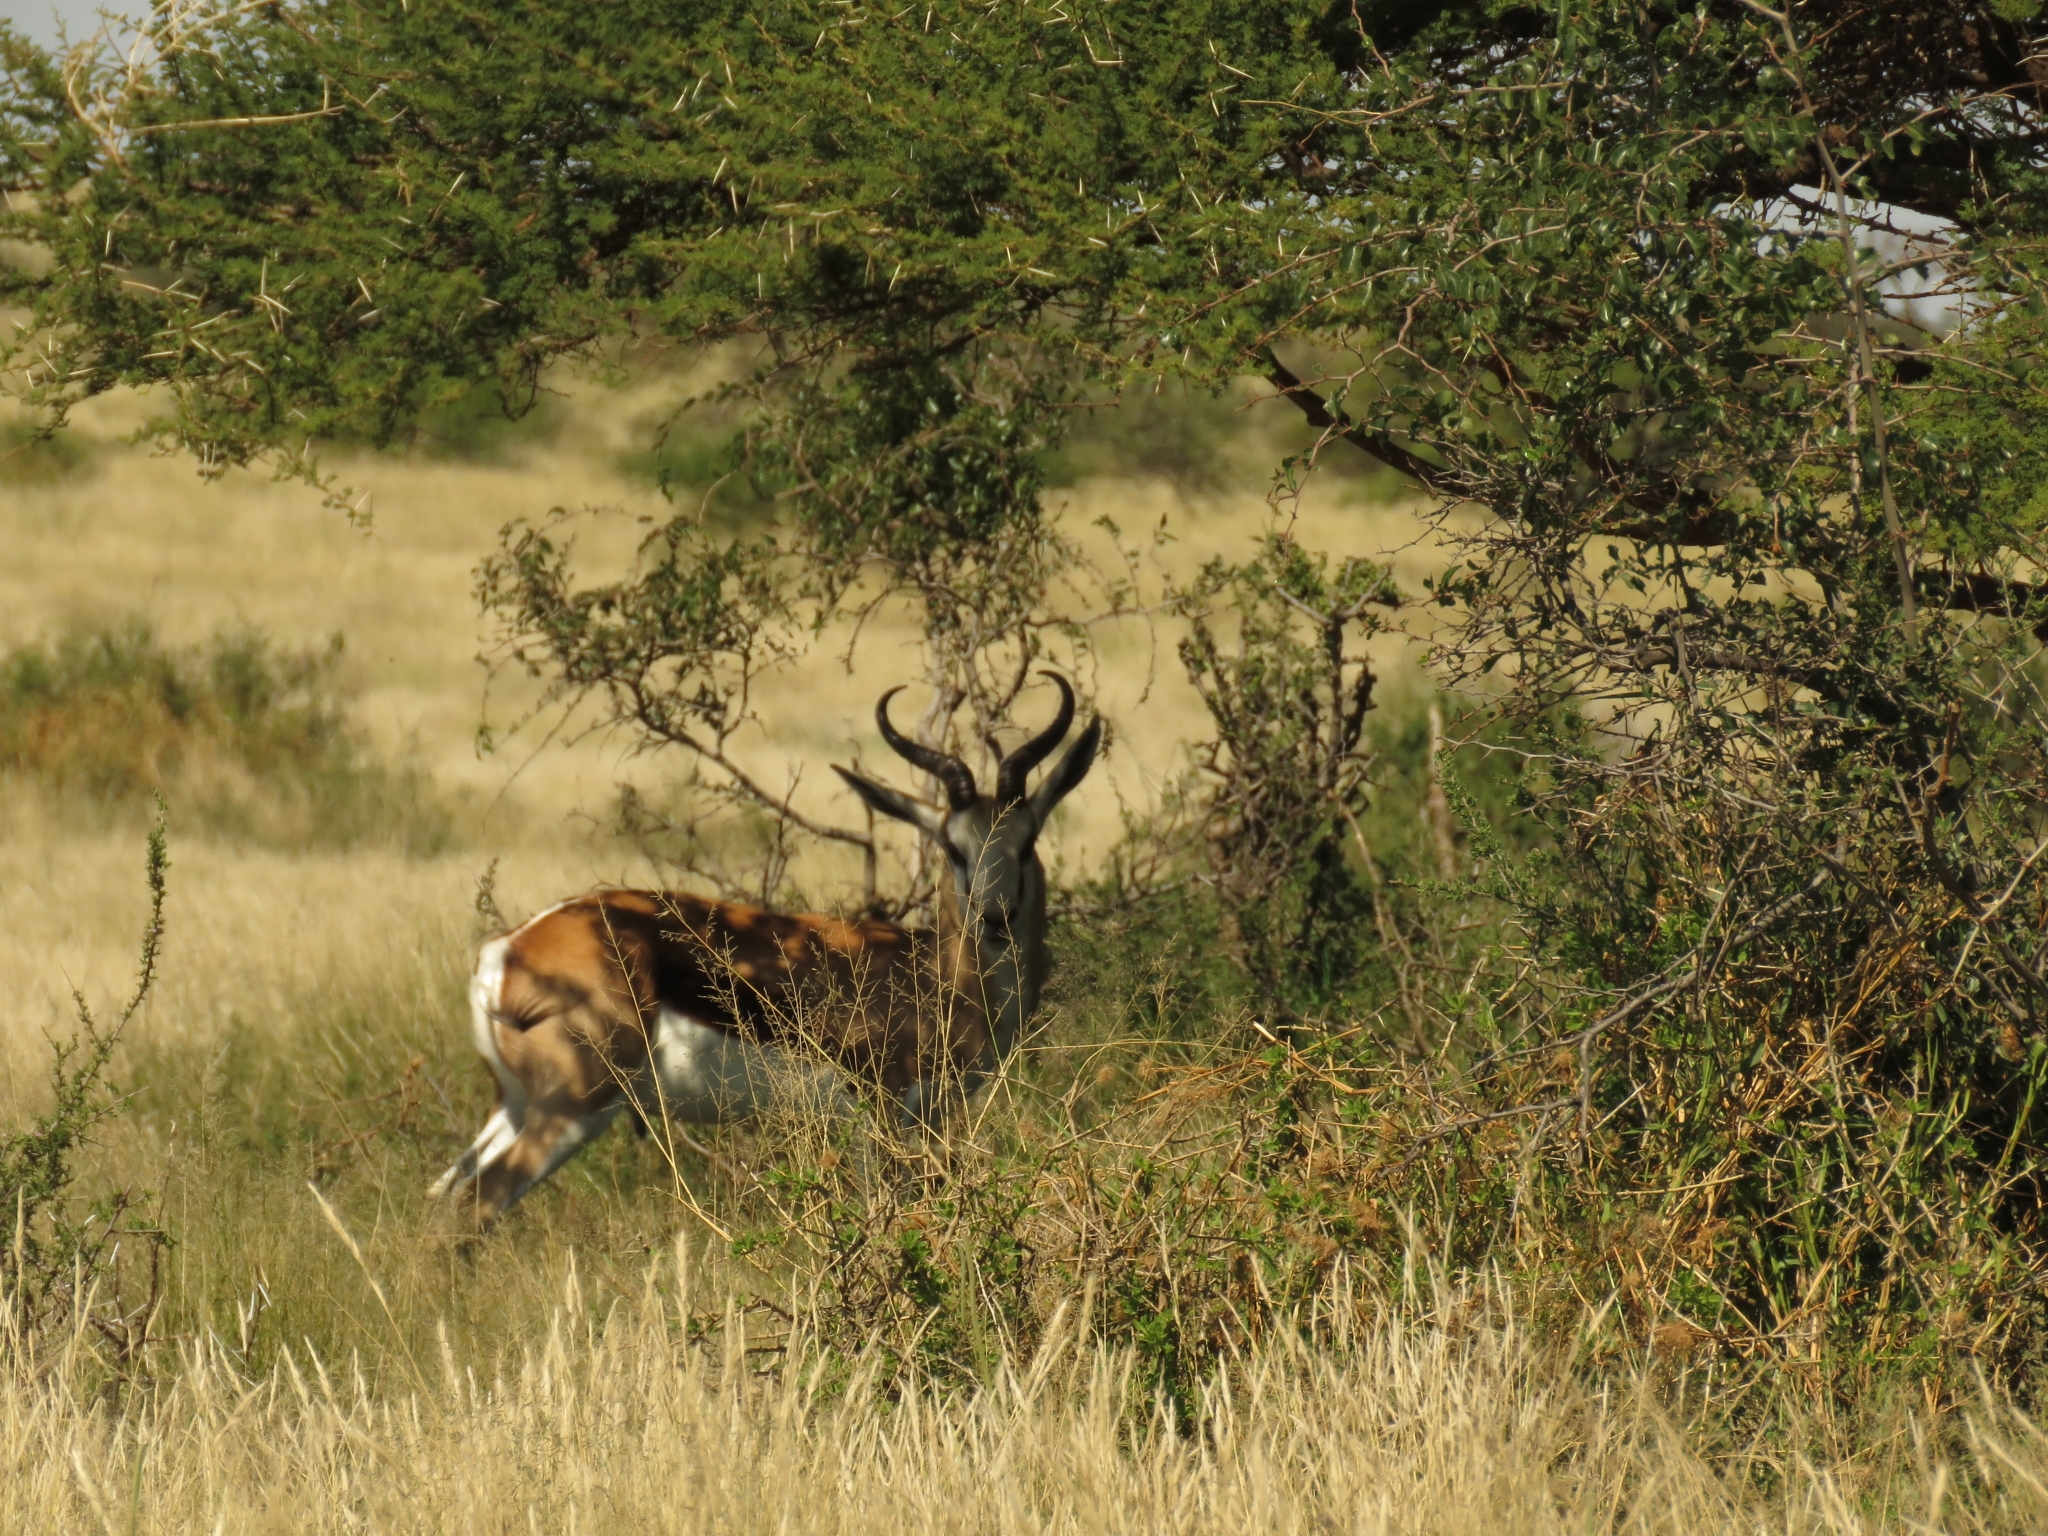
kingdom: Animalia
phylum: Chordata
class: Mammalia
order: Artiodactyla
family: Bovidae
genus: Antidorcas
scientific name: Antidorcas marsupialis
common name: Springbok
